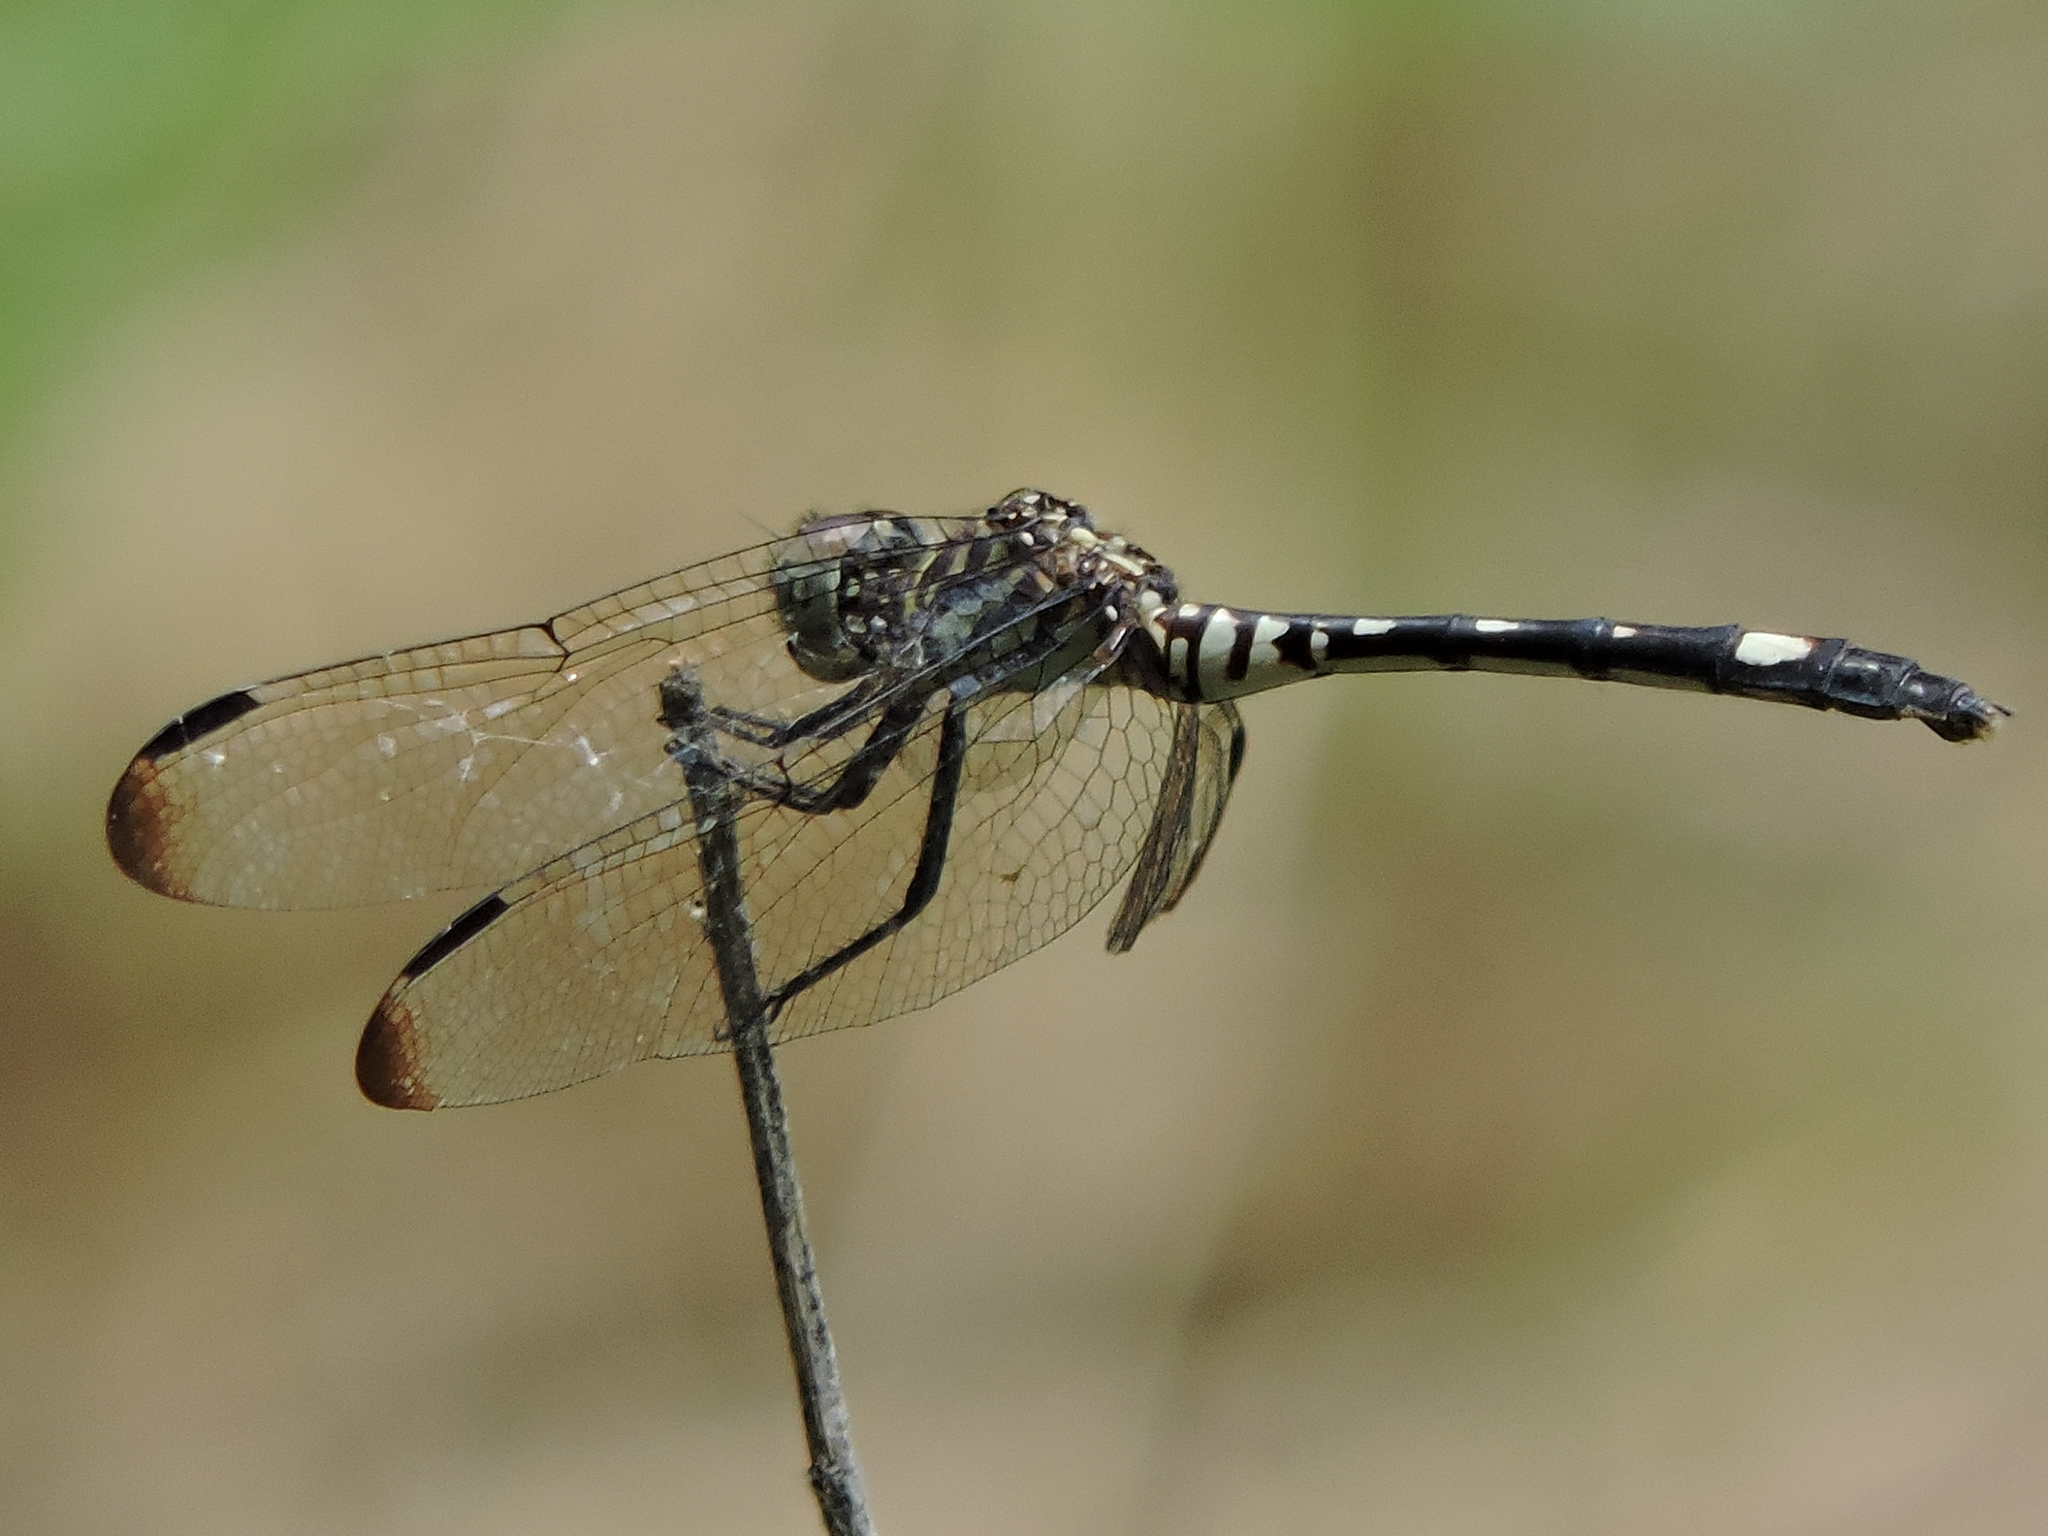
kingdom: Animalia
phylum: Arthropoda
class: Insecta
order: Odonata
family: Libellulidae
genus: Dythemis
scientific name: Dythemis velox
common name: Swift setwing
